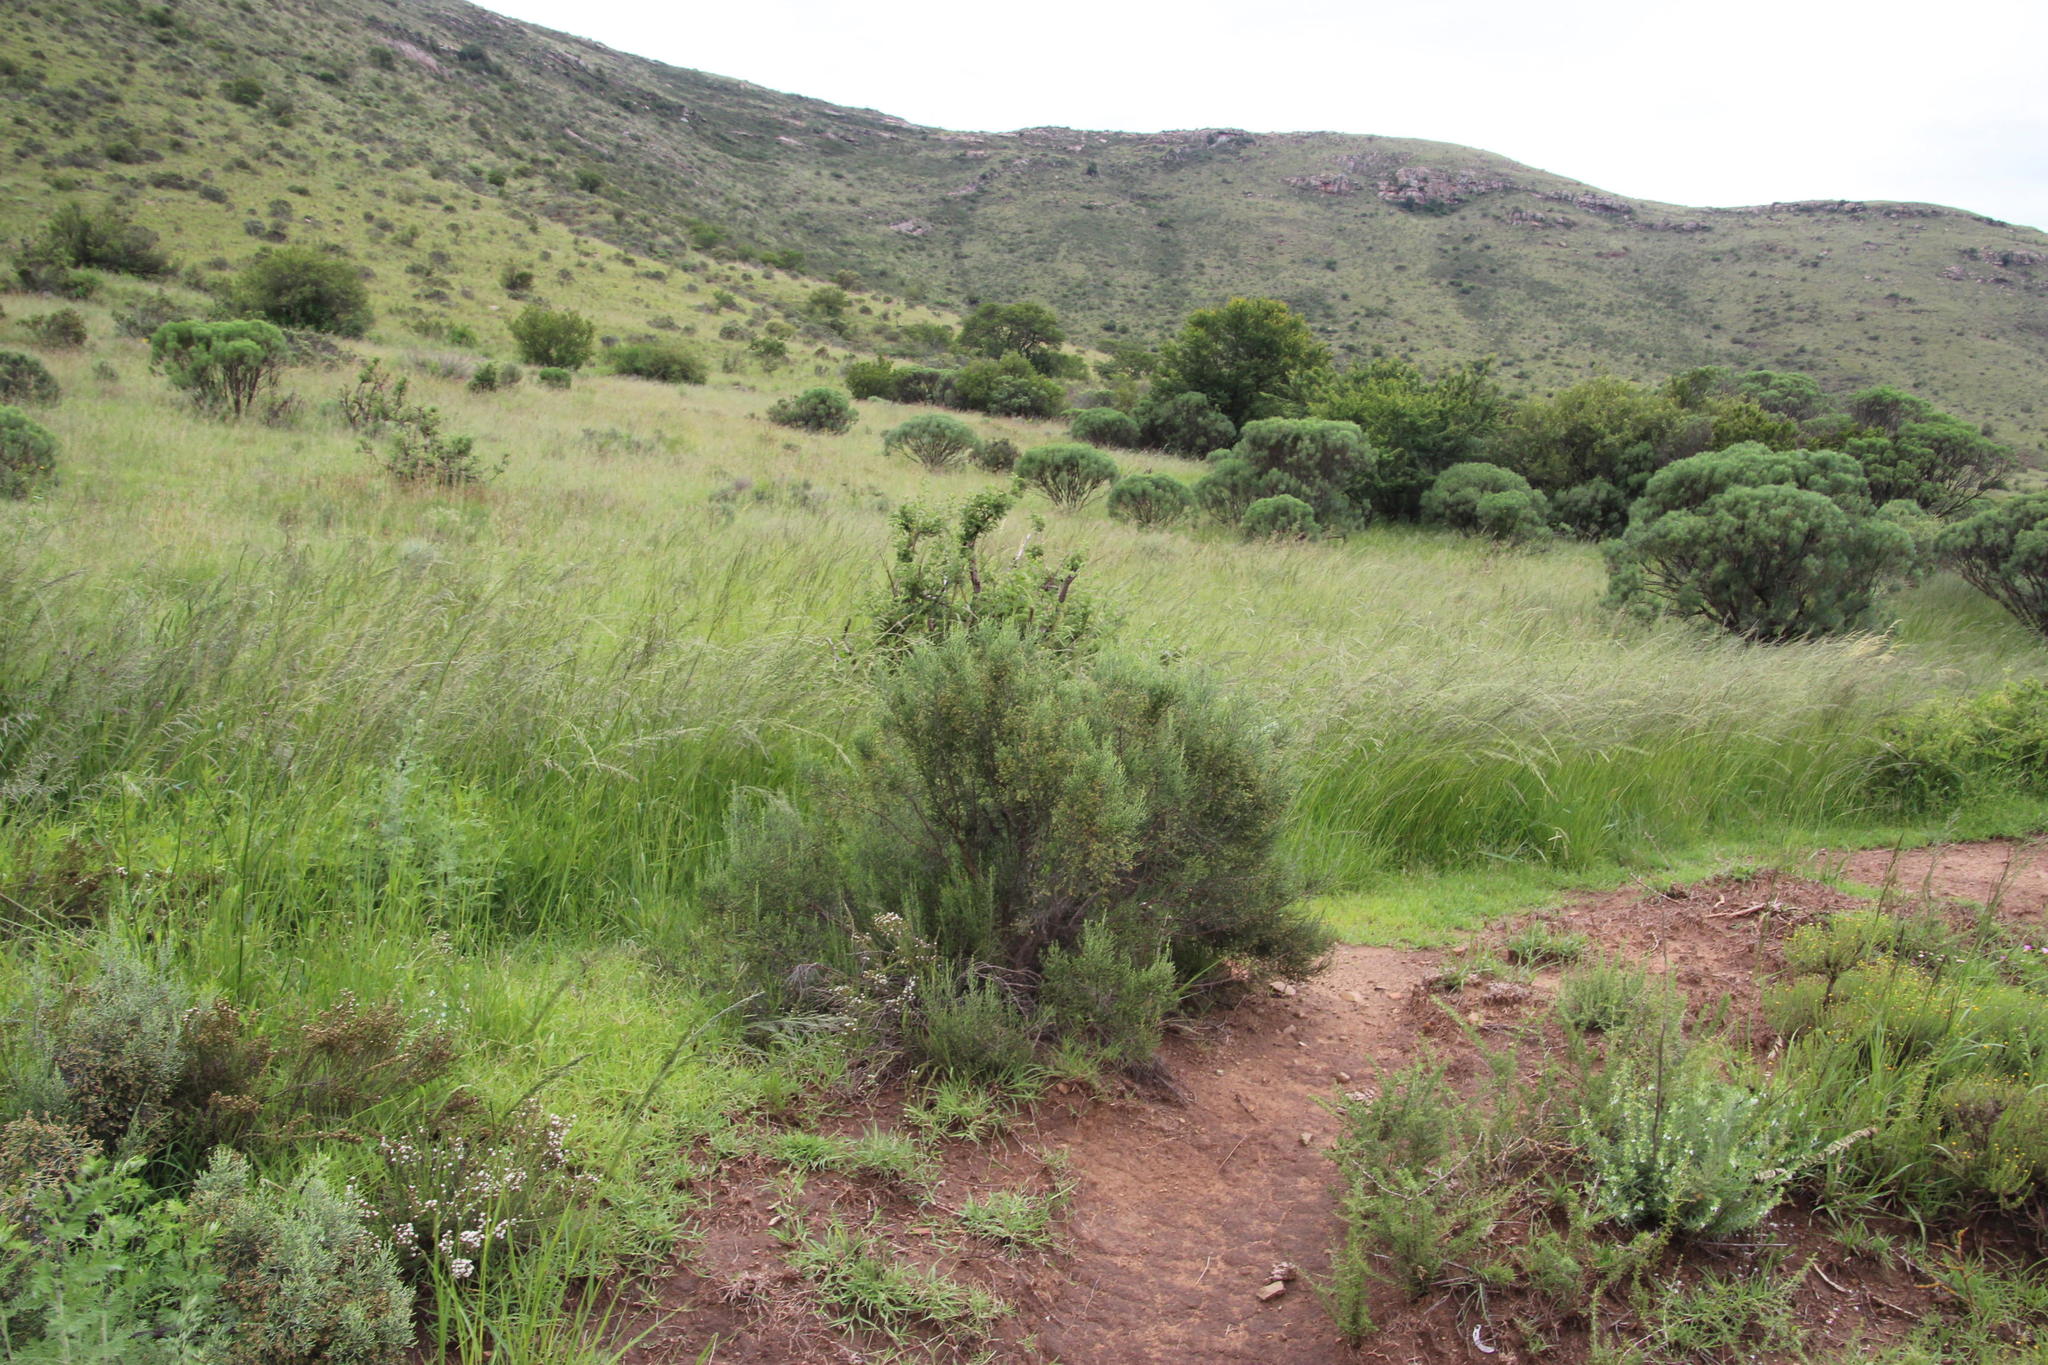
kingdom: Plantae
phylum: Tracheophyta
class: Magnoliopsida
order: Asterales
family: Asteraceae
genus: Dicerothamnus
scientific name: Dicerothamnus rhinocerotis
